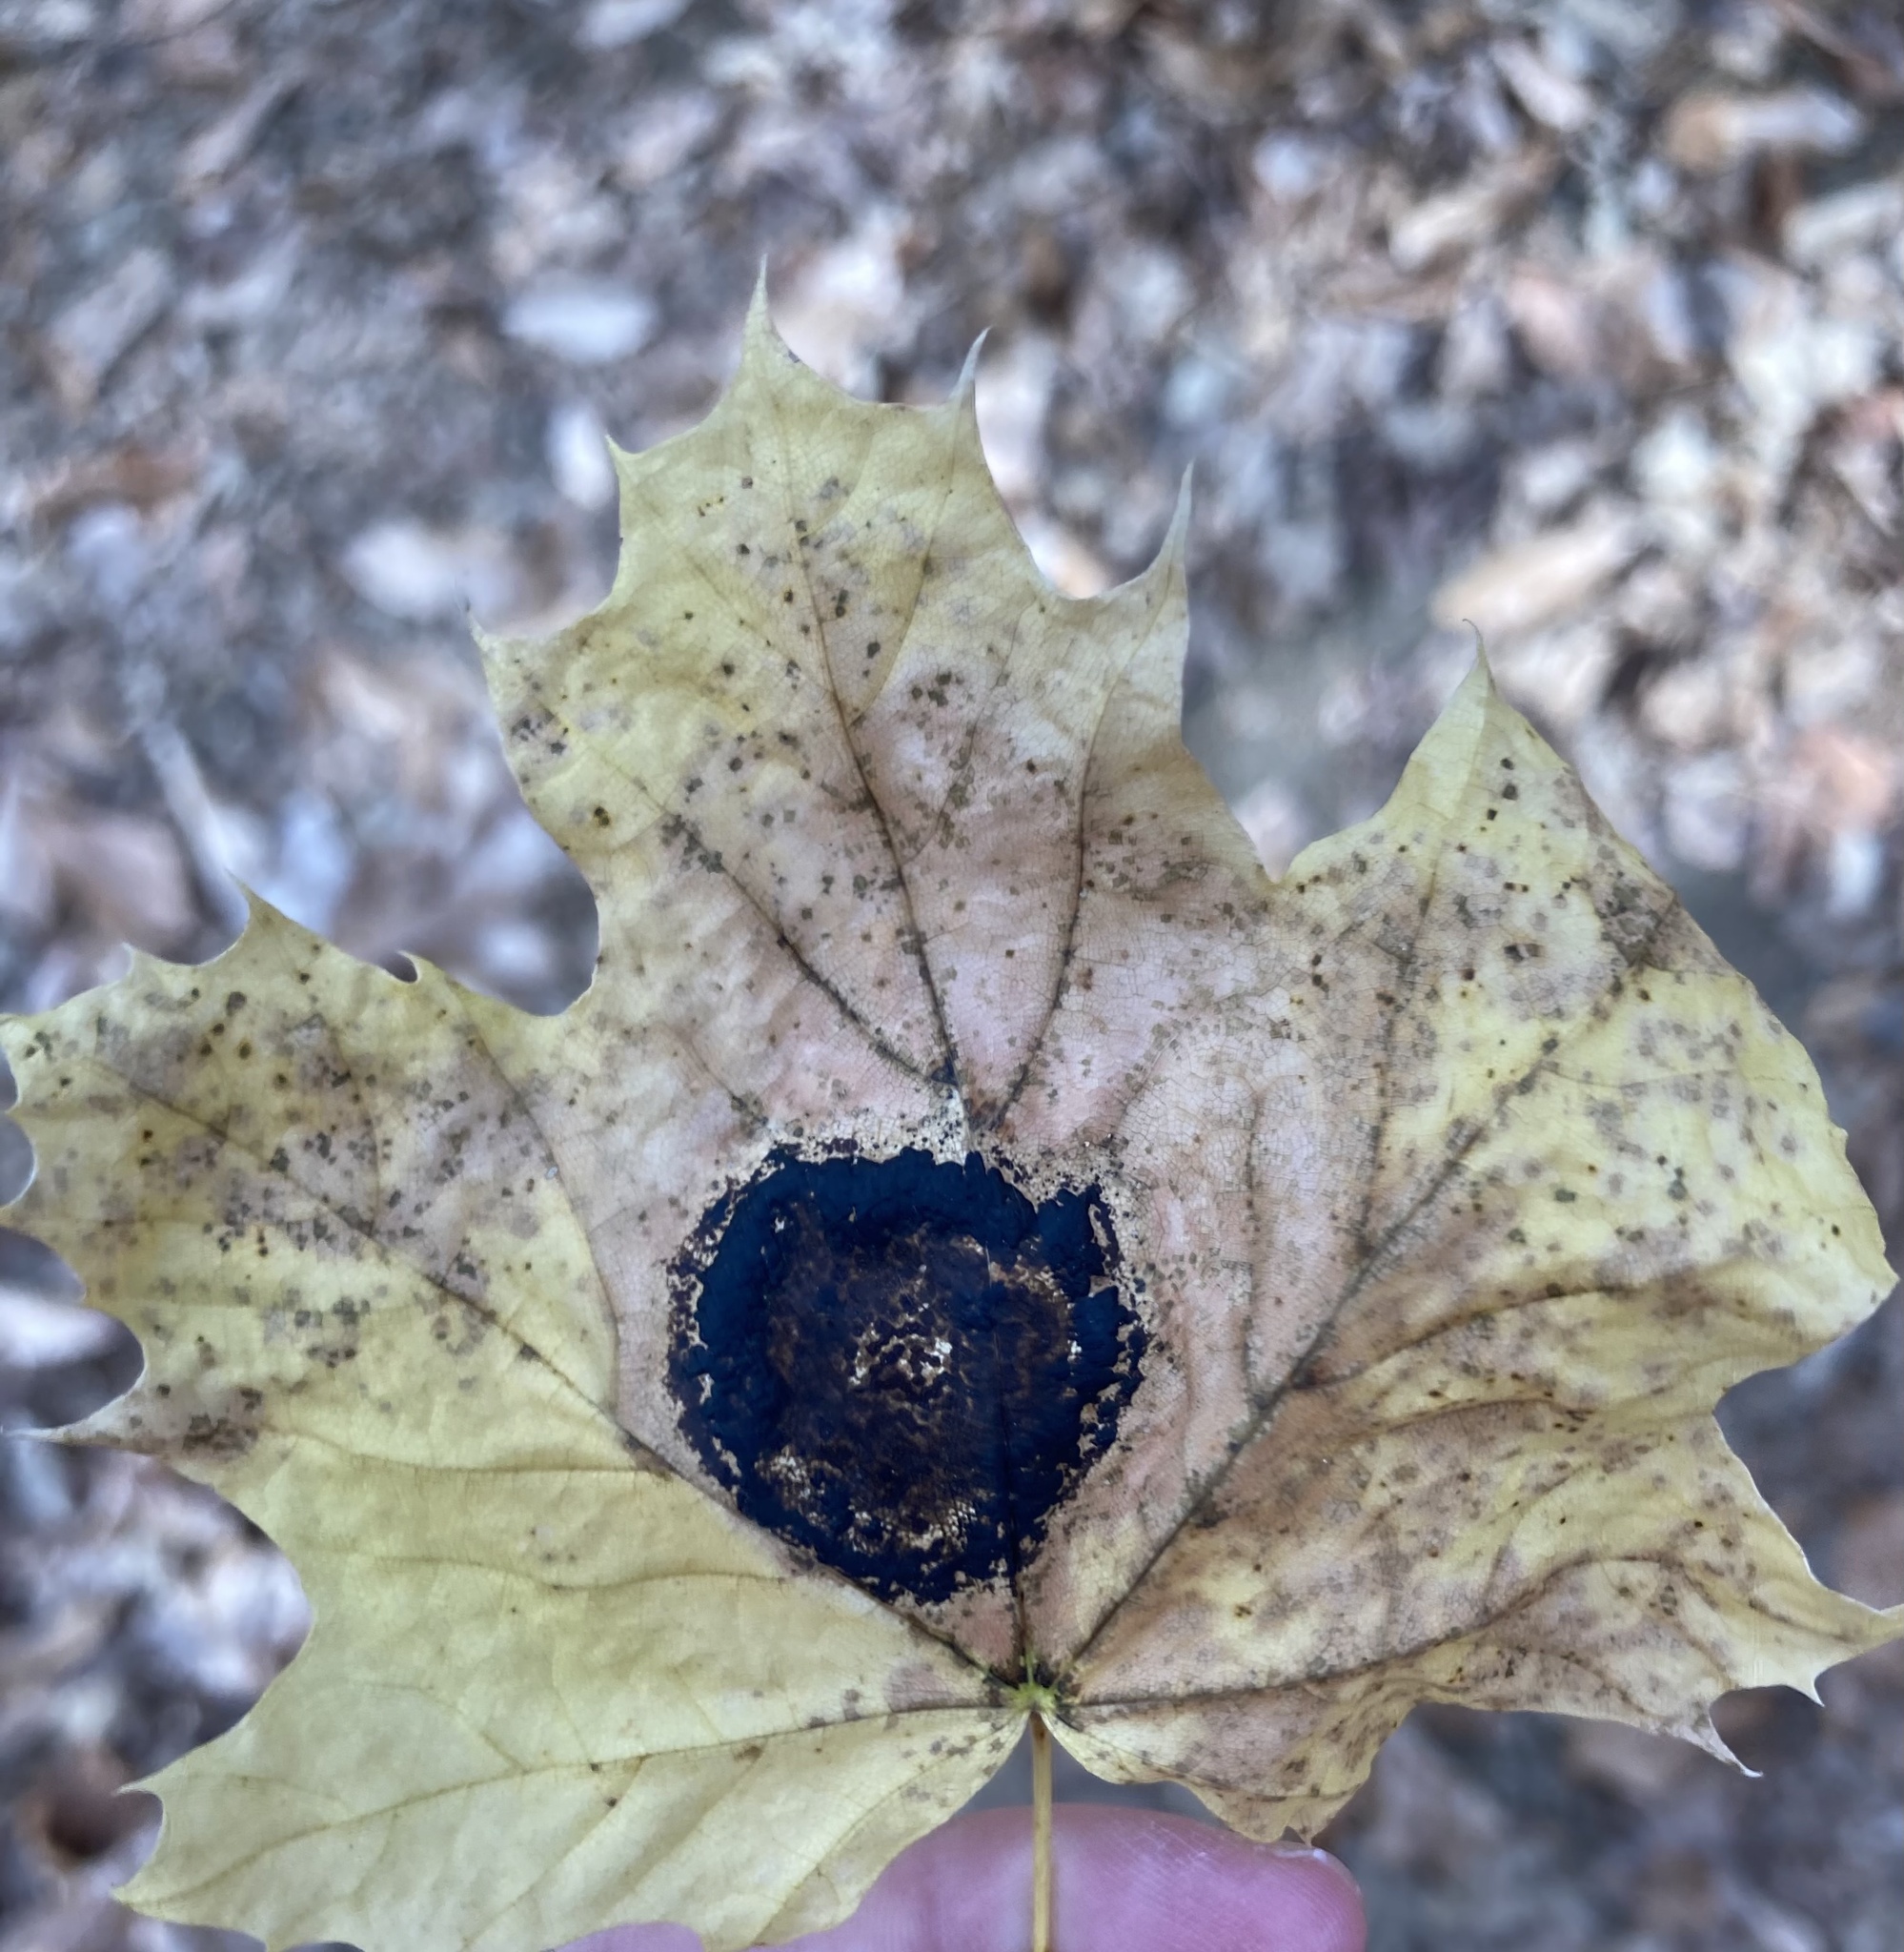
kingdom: Fungi
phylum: Ascomycota
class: Leotiomycetes
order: Rhytismatales
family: Rhytismataceae
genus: Rhytisma
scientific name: Rhytisma acerinum
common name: European tar spot
